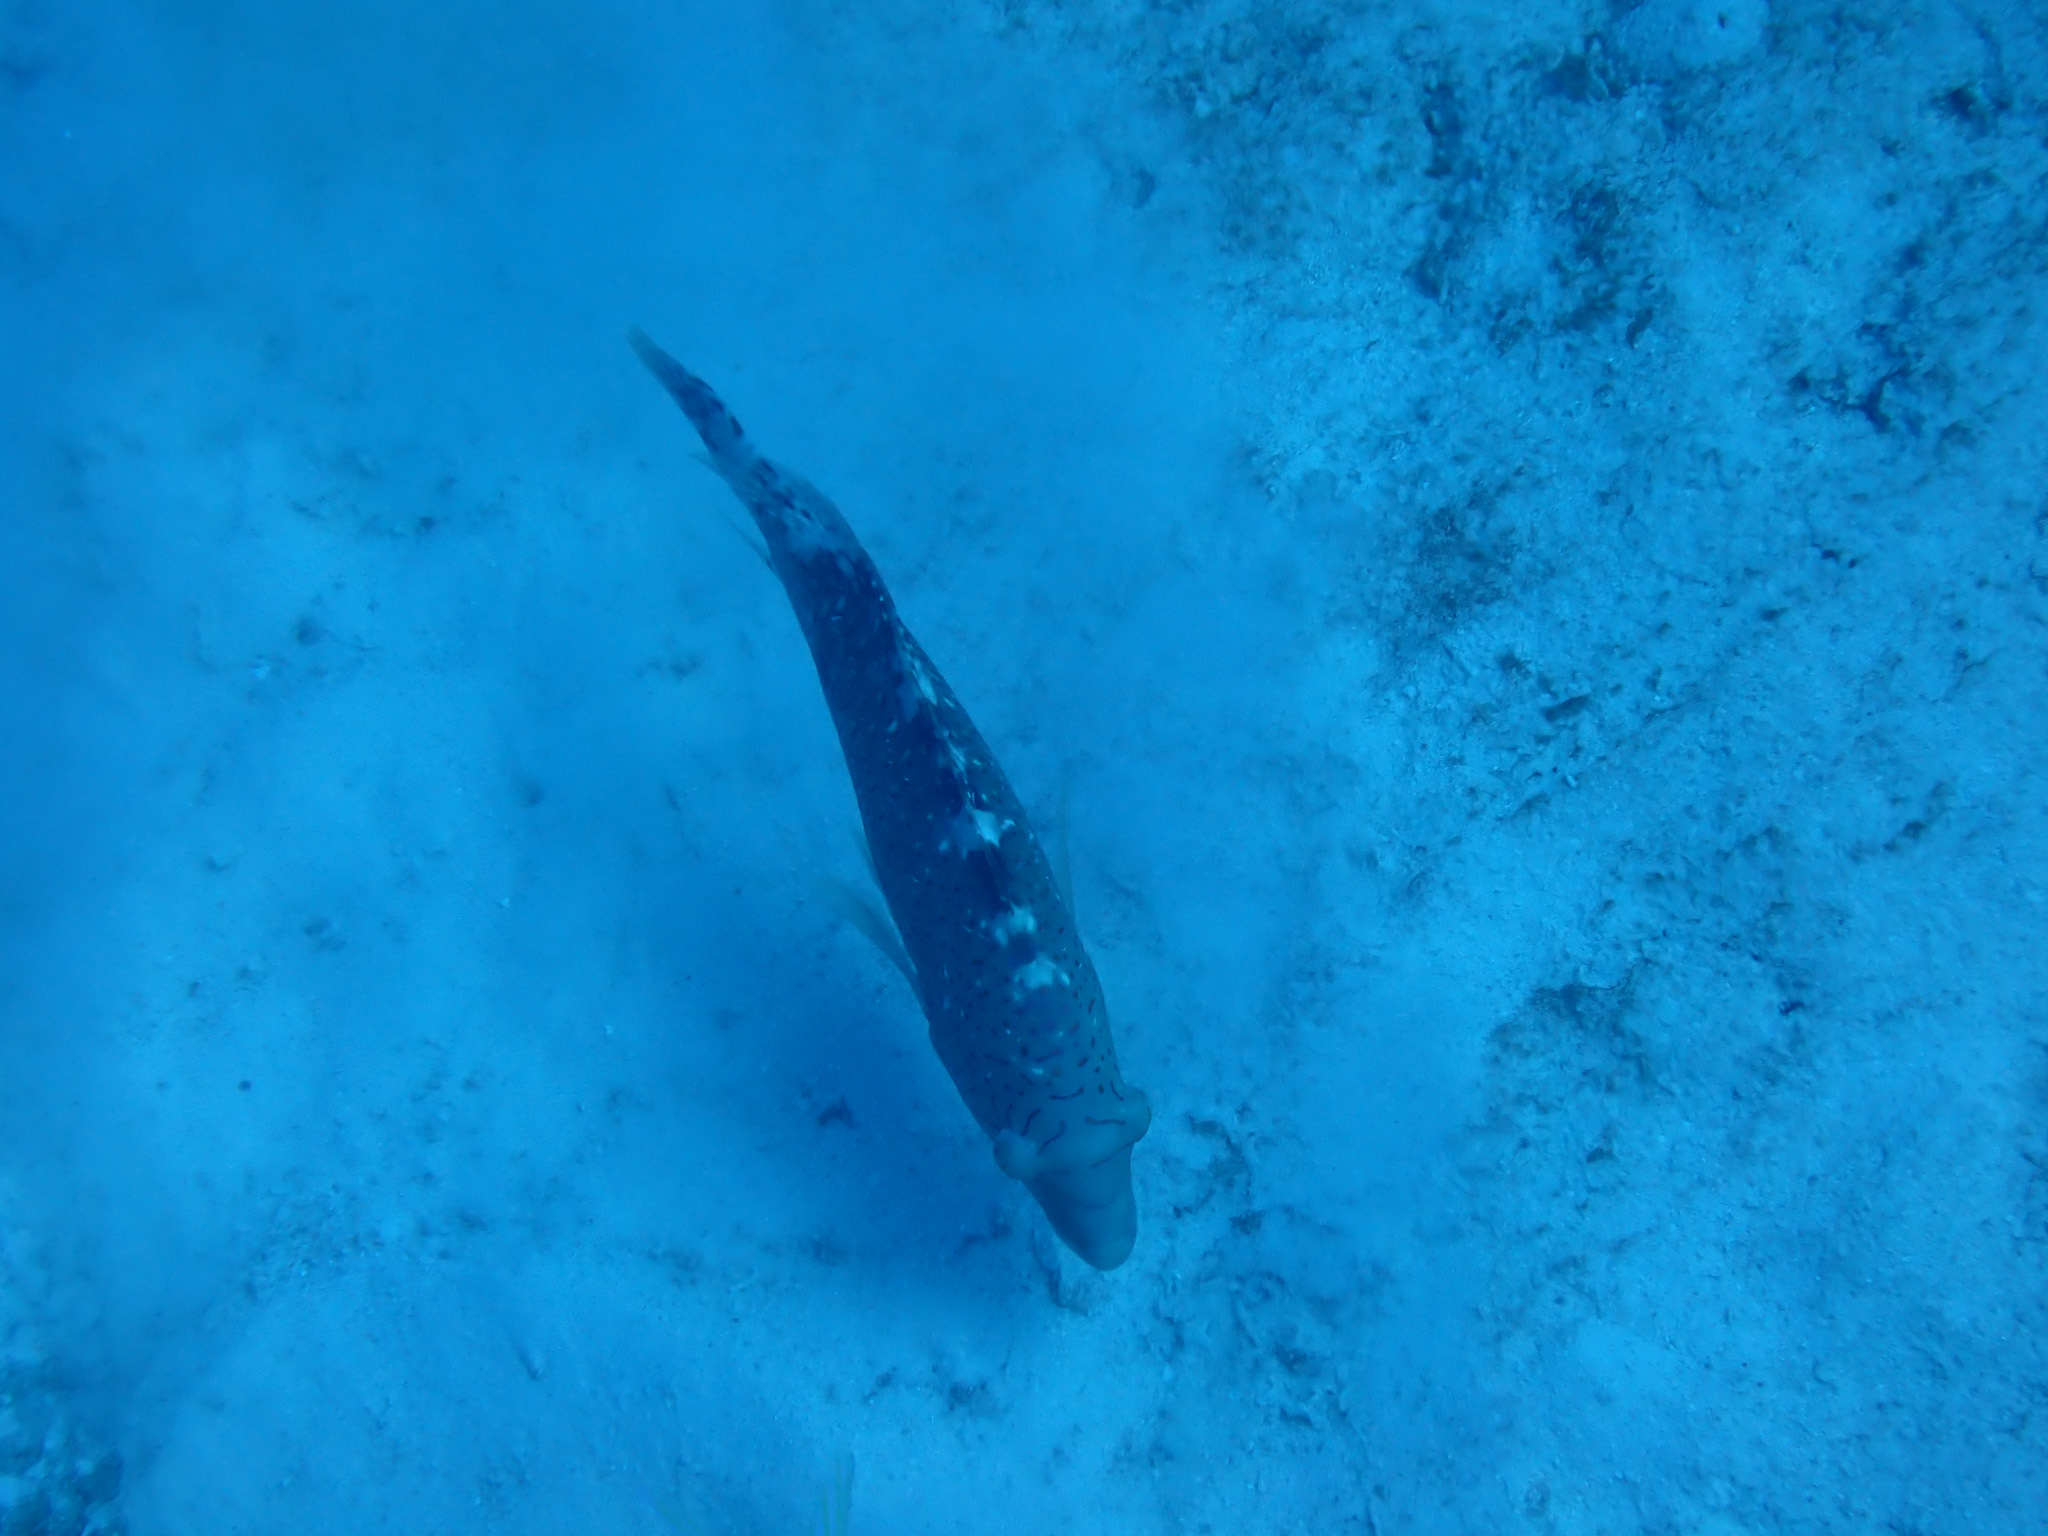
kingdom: Animalia
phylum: Chordata
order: Perciformes
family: Labridae
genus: Cheilinus
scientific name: Cheilinus abudjubbe
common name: Abudjubbe’s splendor wrasse
